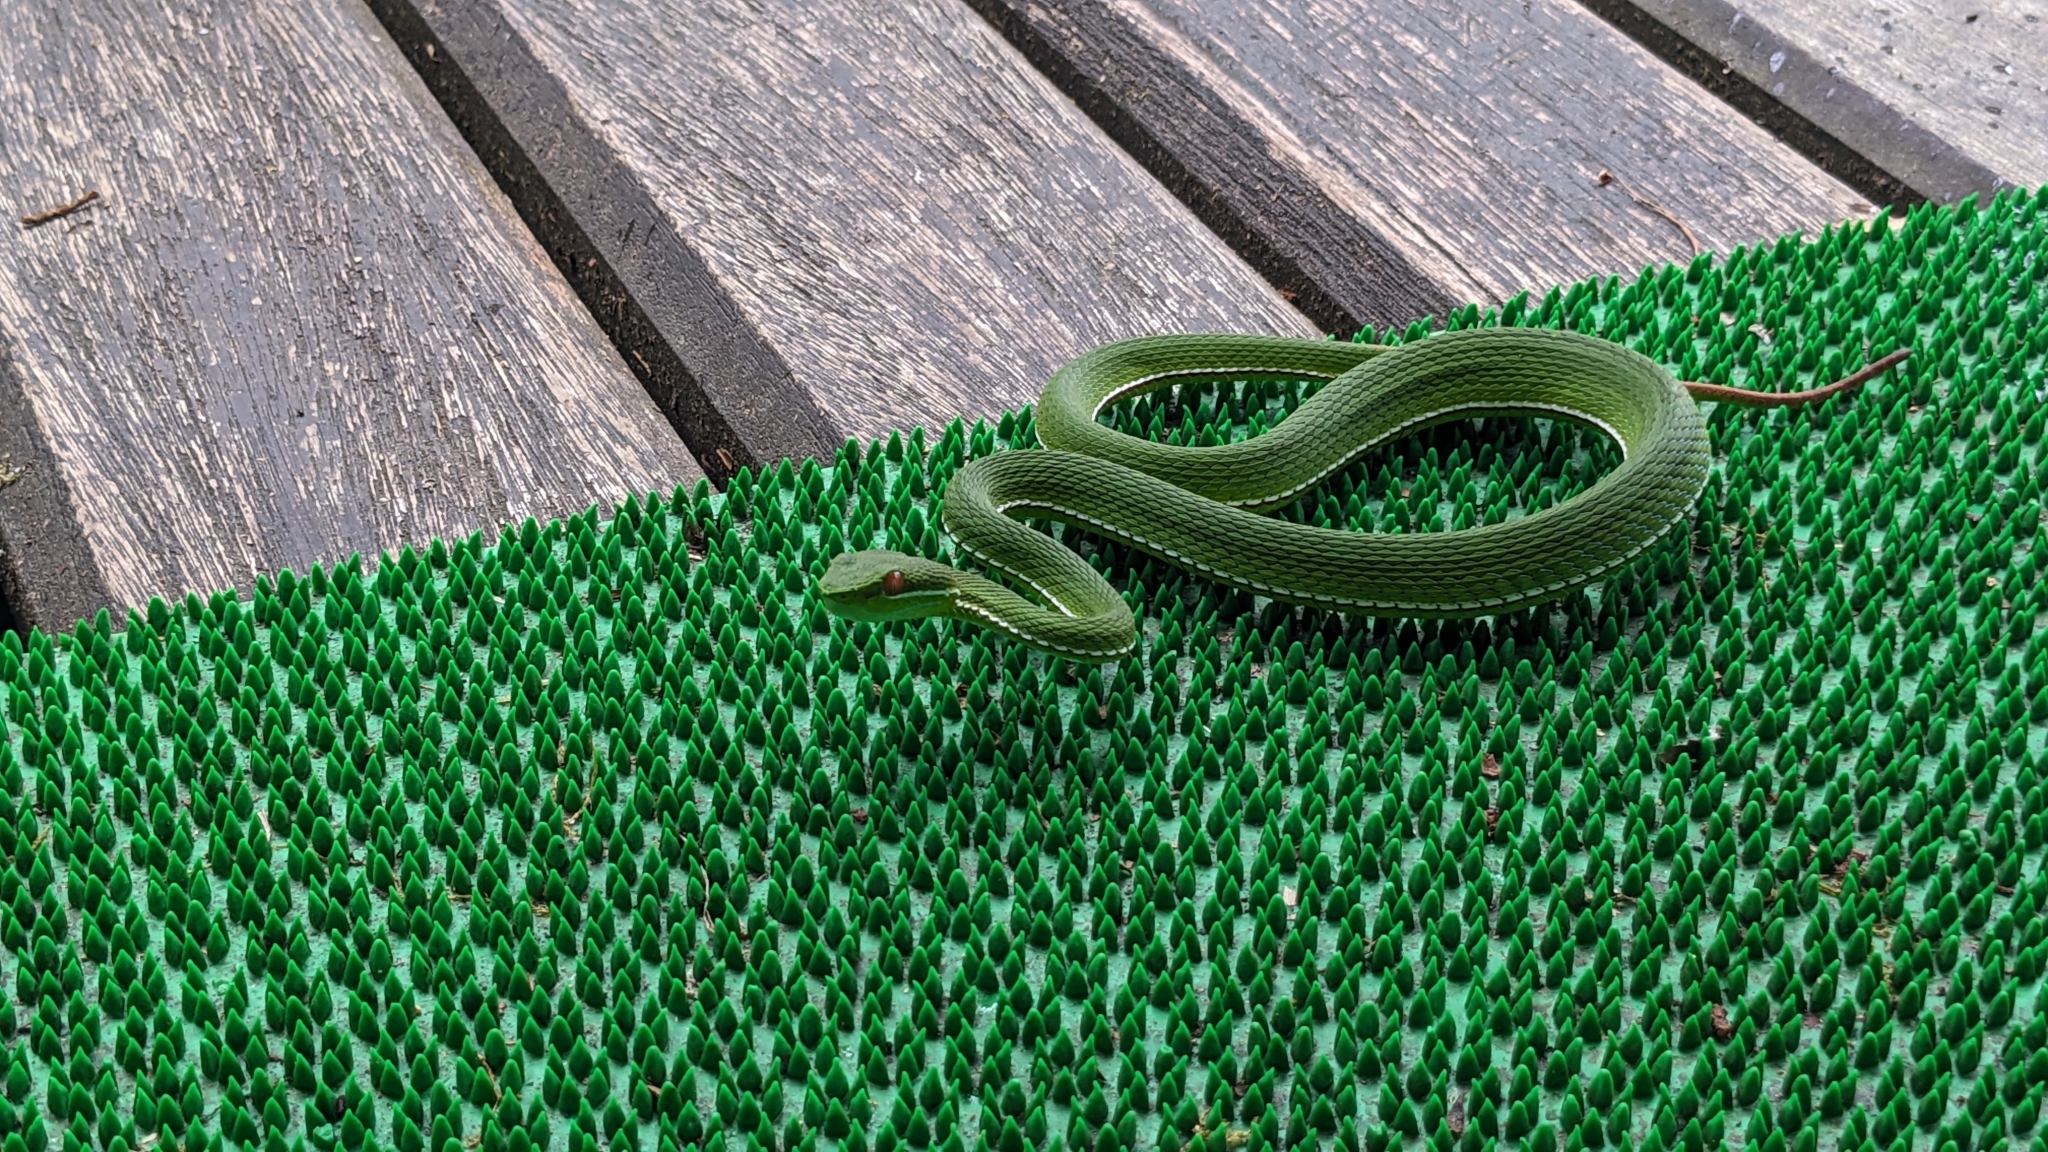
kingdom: Animalia
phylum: Chordata
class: Squamata
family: Viperidae
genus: Trimeresurus
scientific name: Trimeresurus stejnegeri
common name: Chen’s bamboo pit viper
